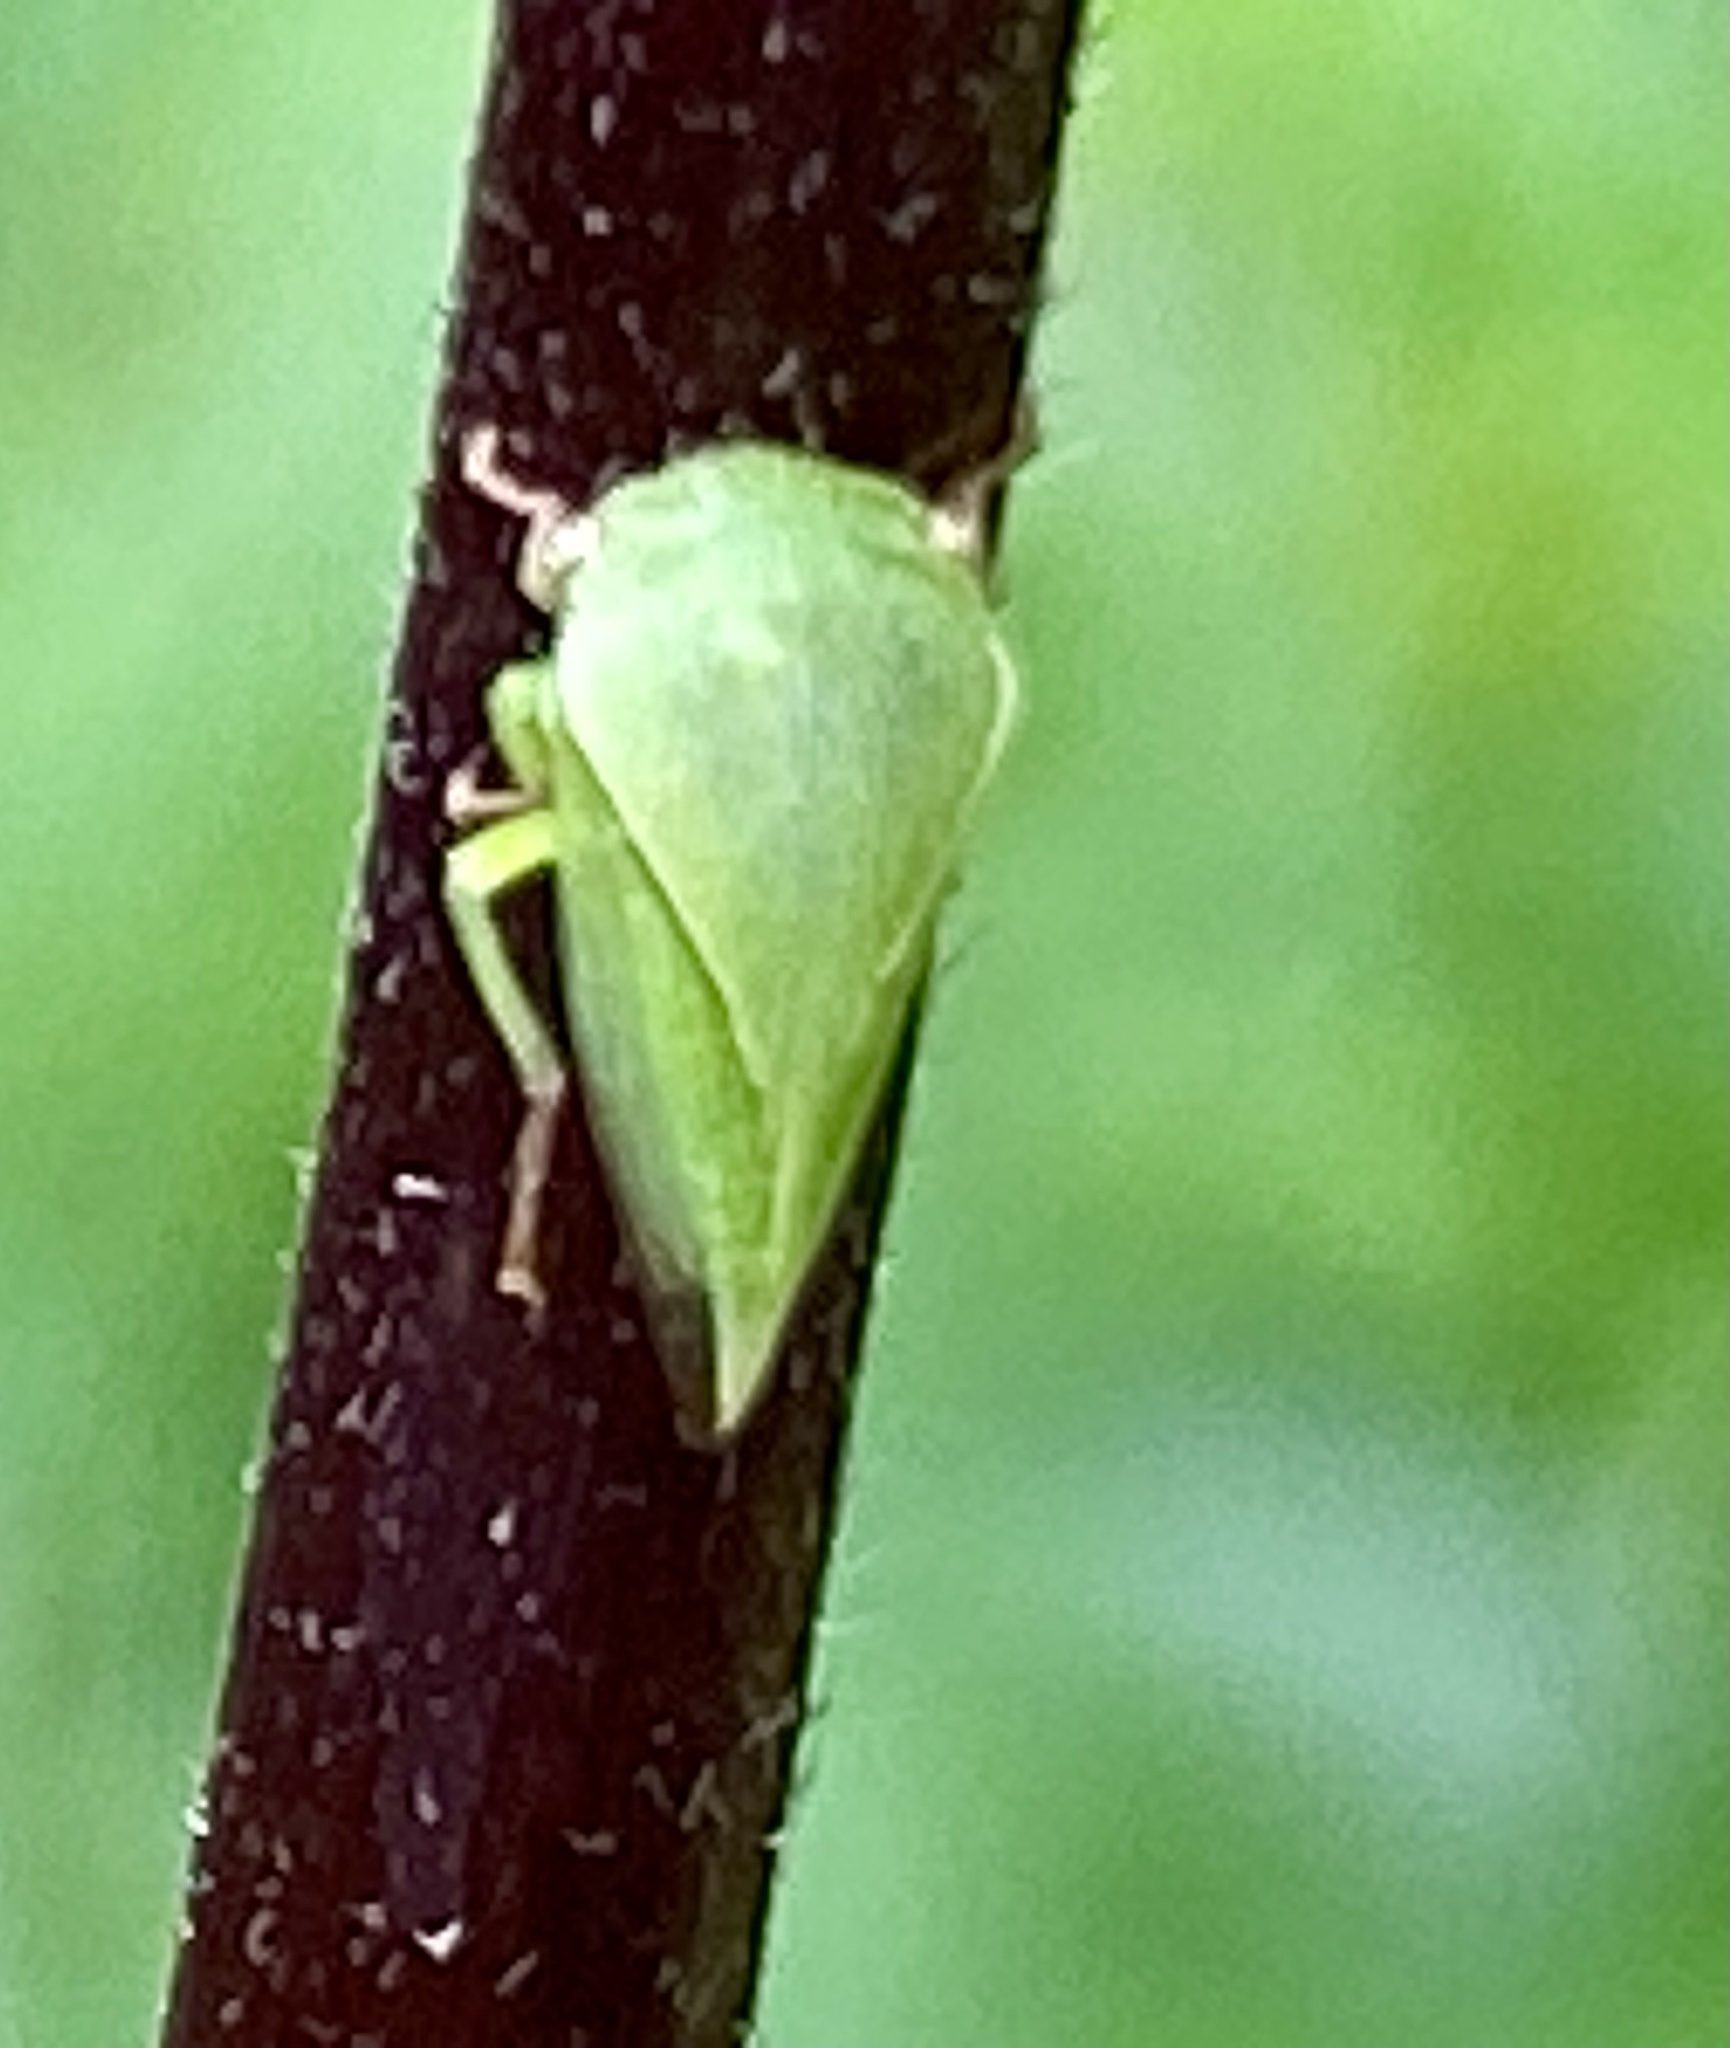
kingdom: Animalia
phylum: Arthropoda
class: Insecta
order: Hemiptera
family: Membracidae
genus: Spissistilus
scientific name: Spissistilus festina
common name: Membracid bug
